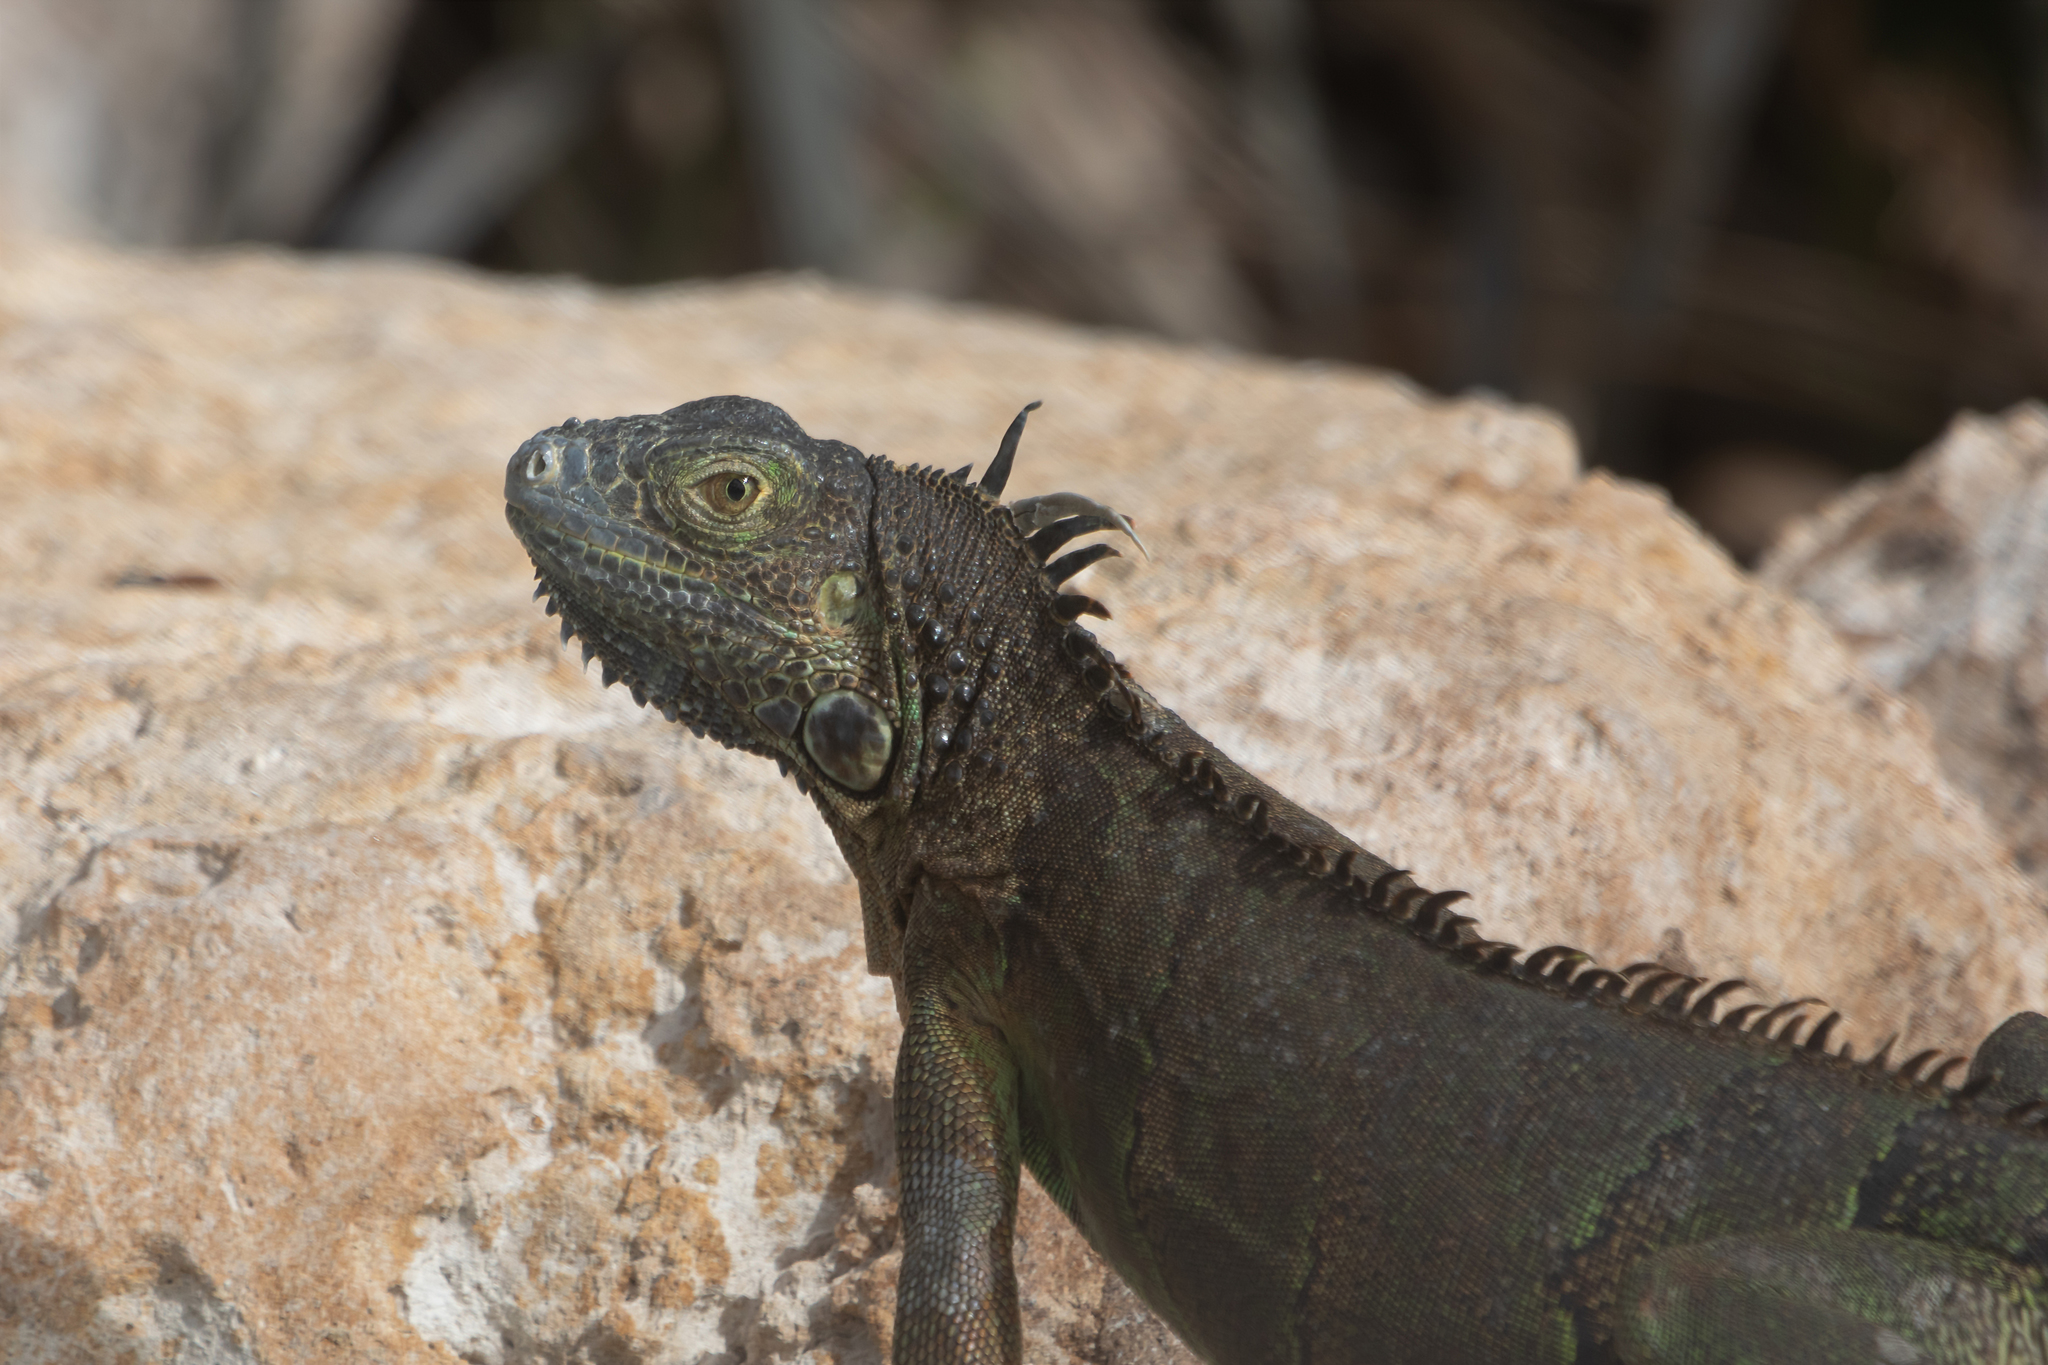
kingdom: Animalia
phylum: Chordata
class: Squamata
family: Iguanidae
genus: Iguana
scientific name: Iguana iguana
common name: Green iguana
